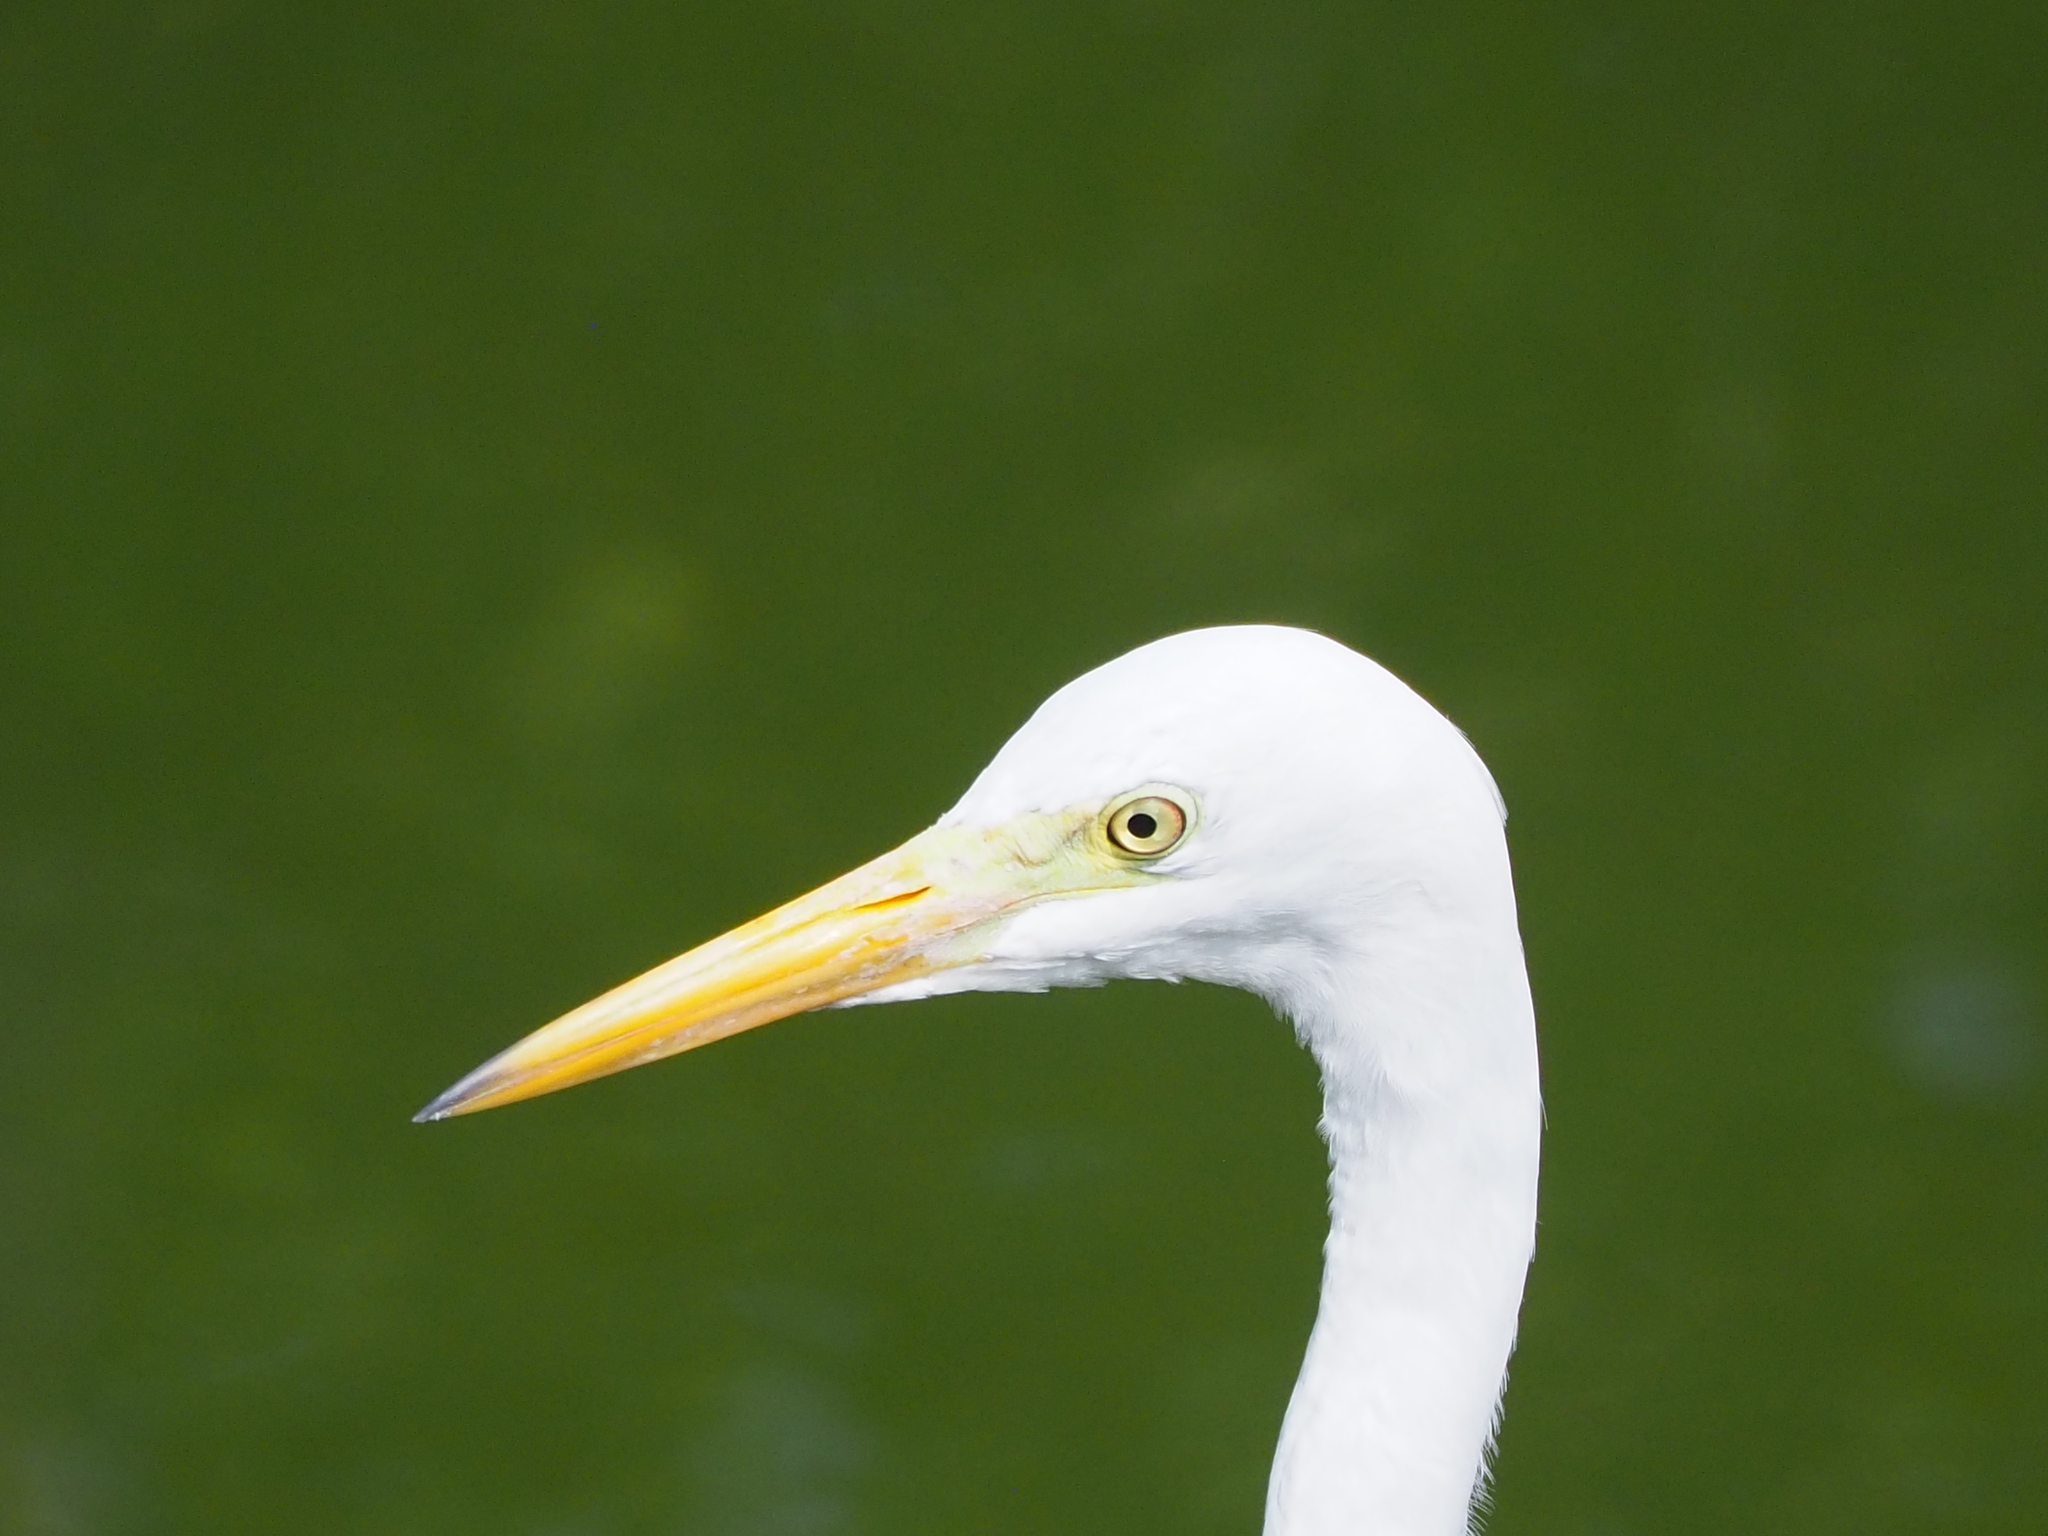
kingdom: Animalia
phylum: Chordata
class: Aves
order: Pelecaniformes
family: Ardeidae
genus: Egretta
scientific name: Egretta intermedia
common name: Intermediate egret
